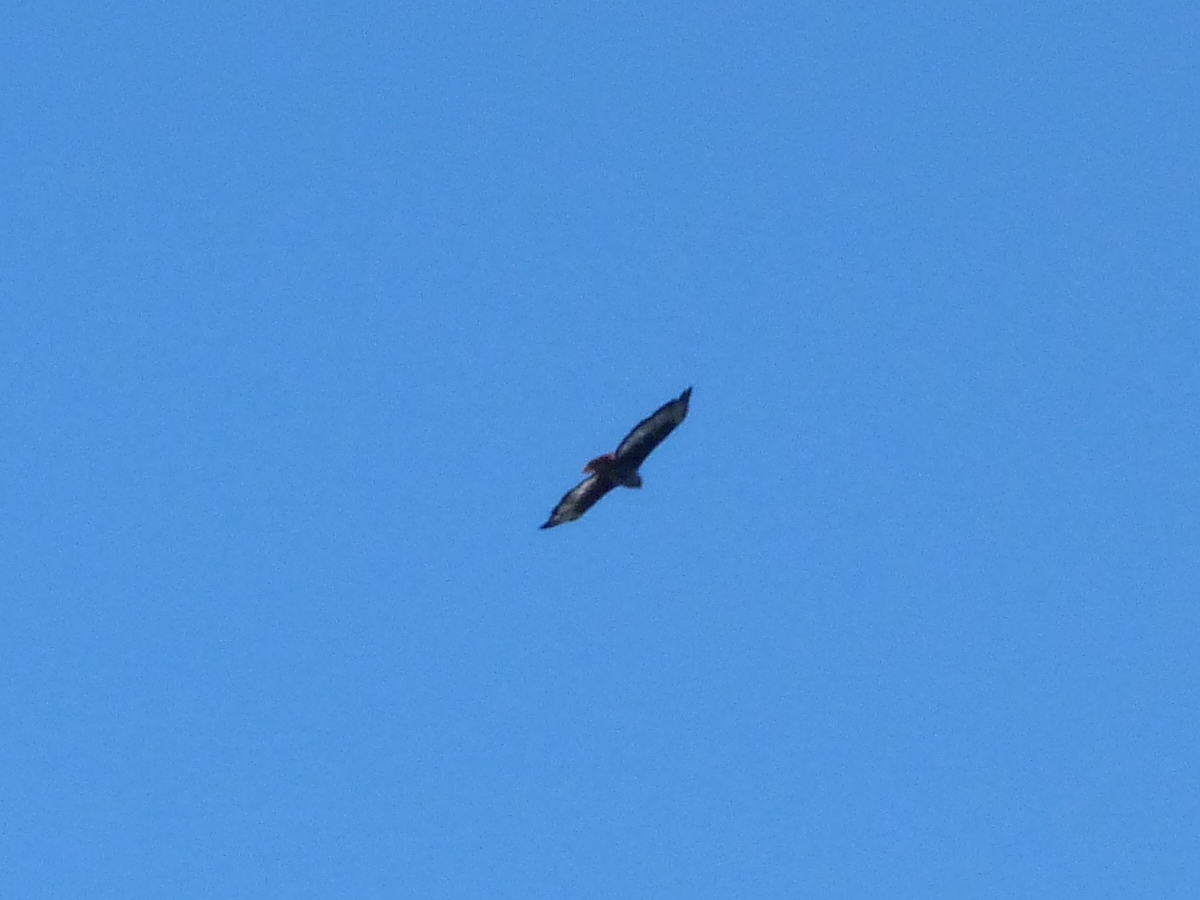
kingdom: Animalia
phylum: Chordata
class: Aves
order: Accipitriformes
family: Accipitridae
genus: Buteo
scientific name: Buteo rufofuscus
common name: Jackal buzzard
